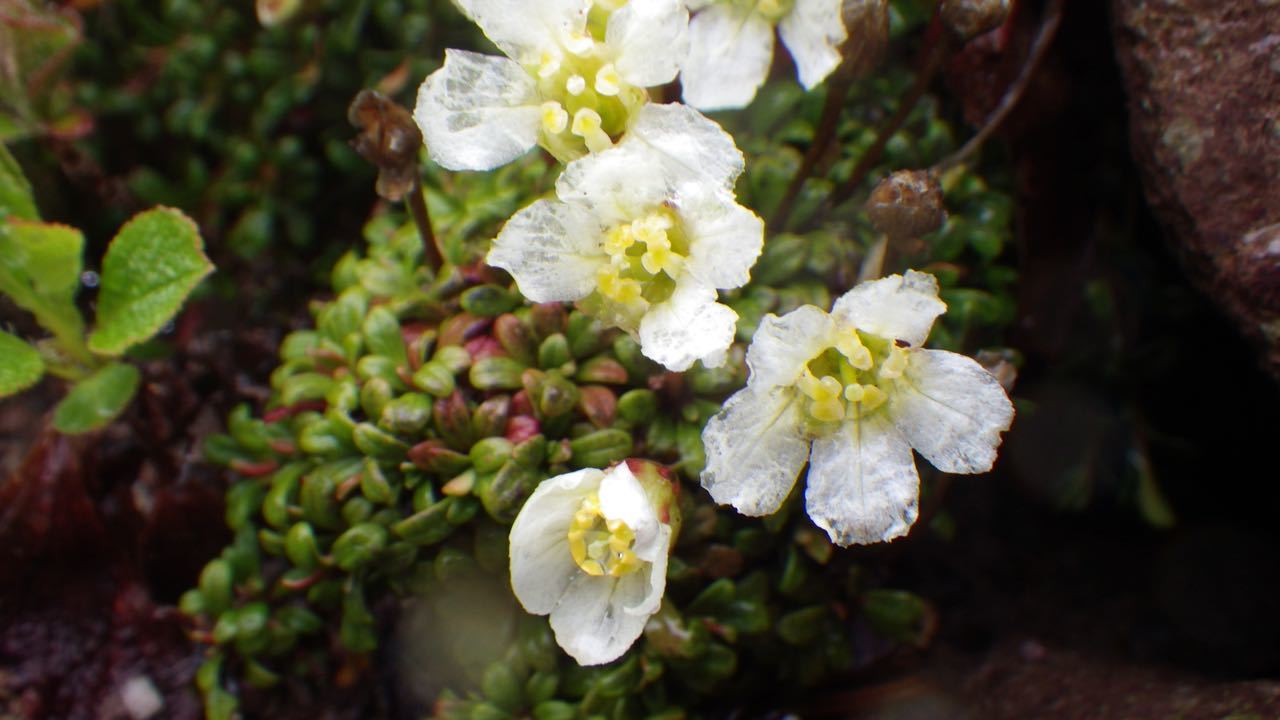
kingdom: Plantae
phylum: Tracheophyta
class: Magnoliopsida
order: Ericales
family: Diapensiaceae
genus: Diapensia
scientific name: Diapensia obovata
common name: Alaska diapensia
